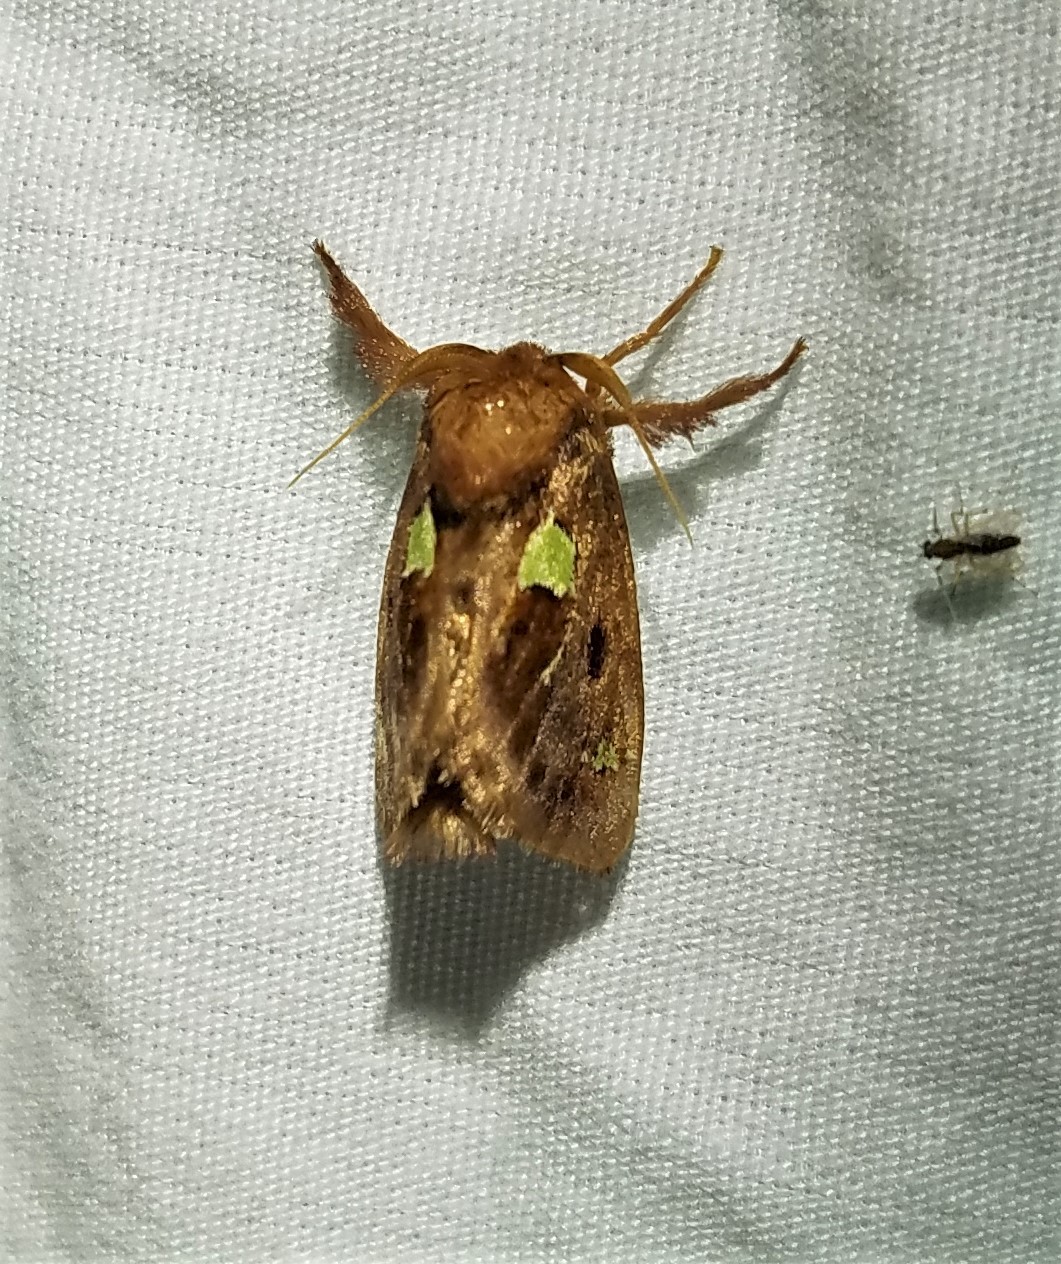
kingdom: Animalia
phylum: Arthropoda
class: Insecta
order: Lepidoptera
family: Limacodidae
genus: Euclea
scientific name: Euclea delphinii
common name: Spiny oak-slug moth
